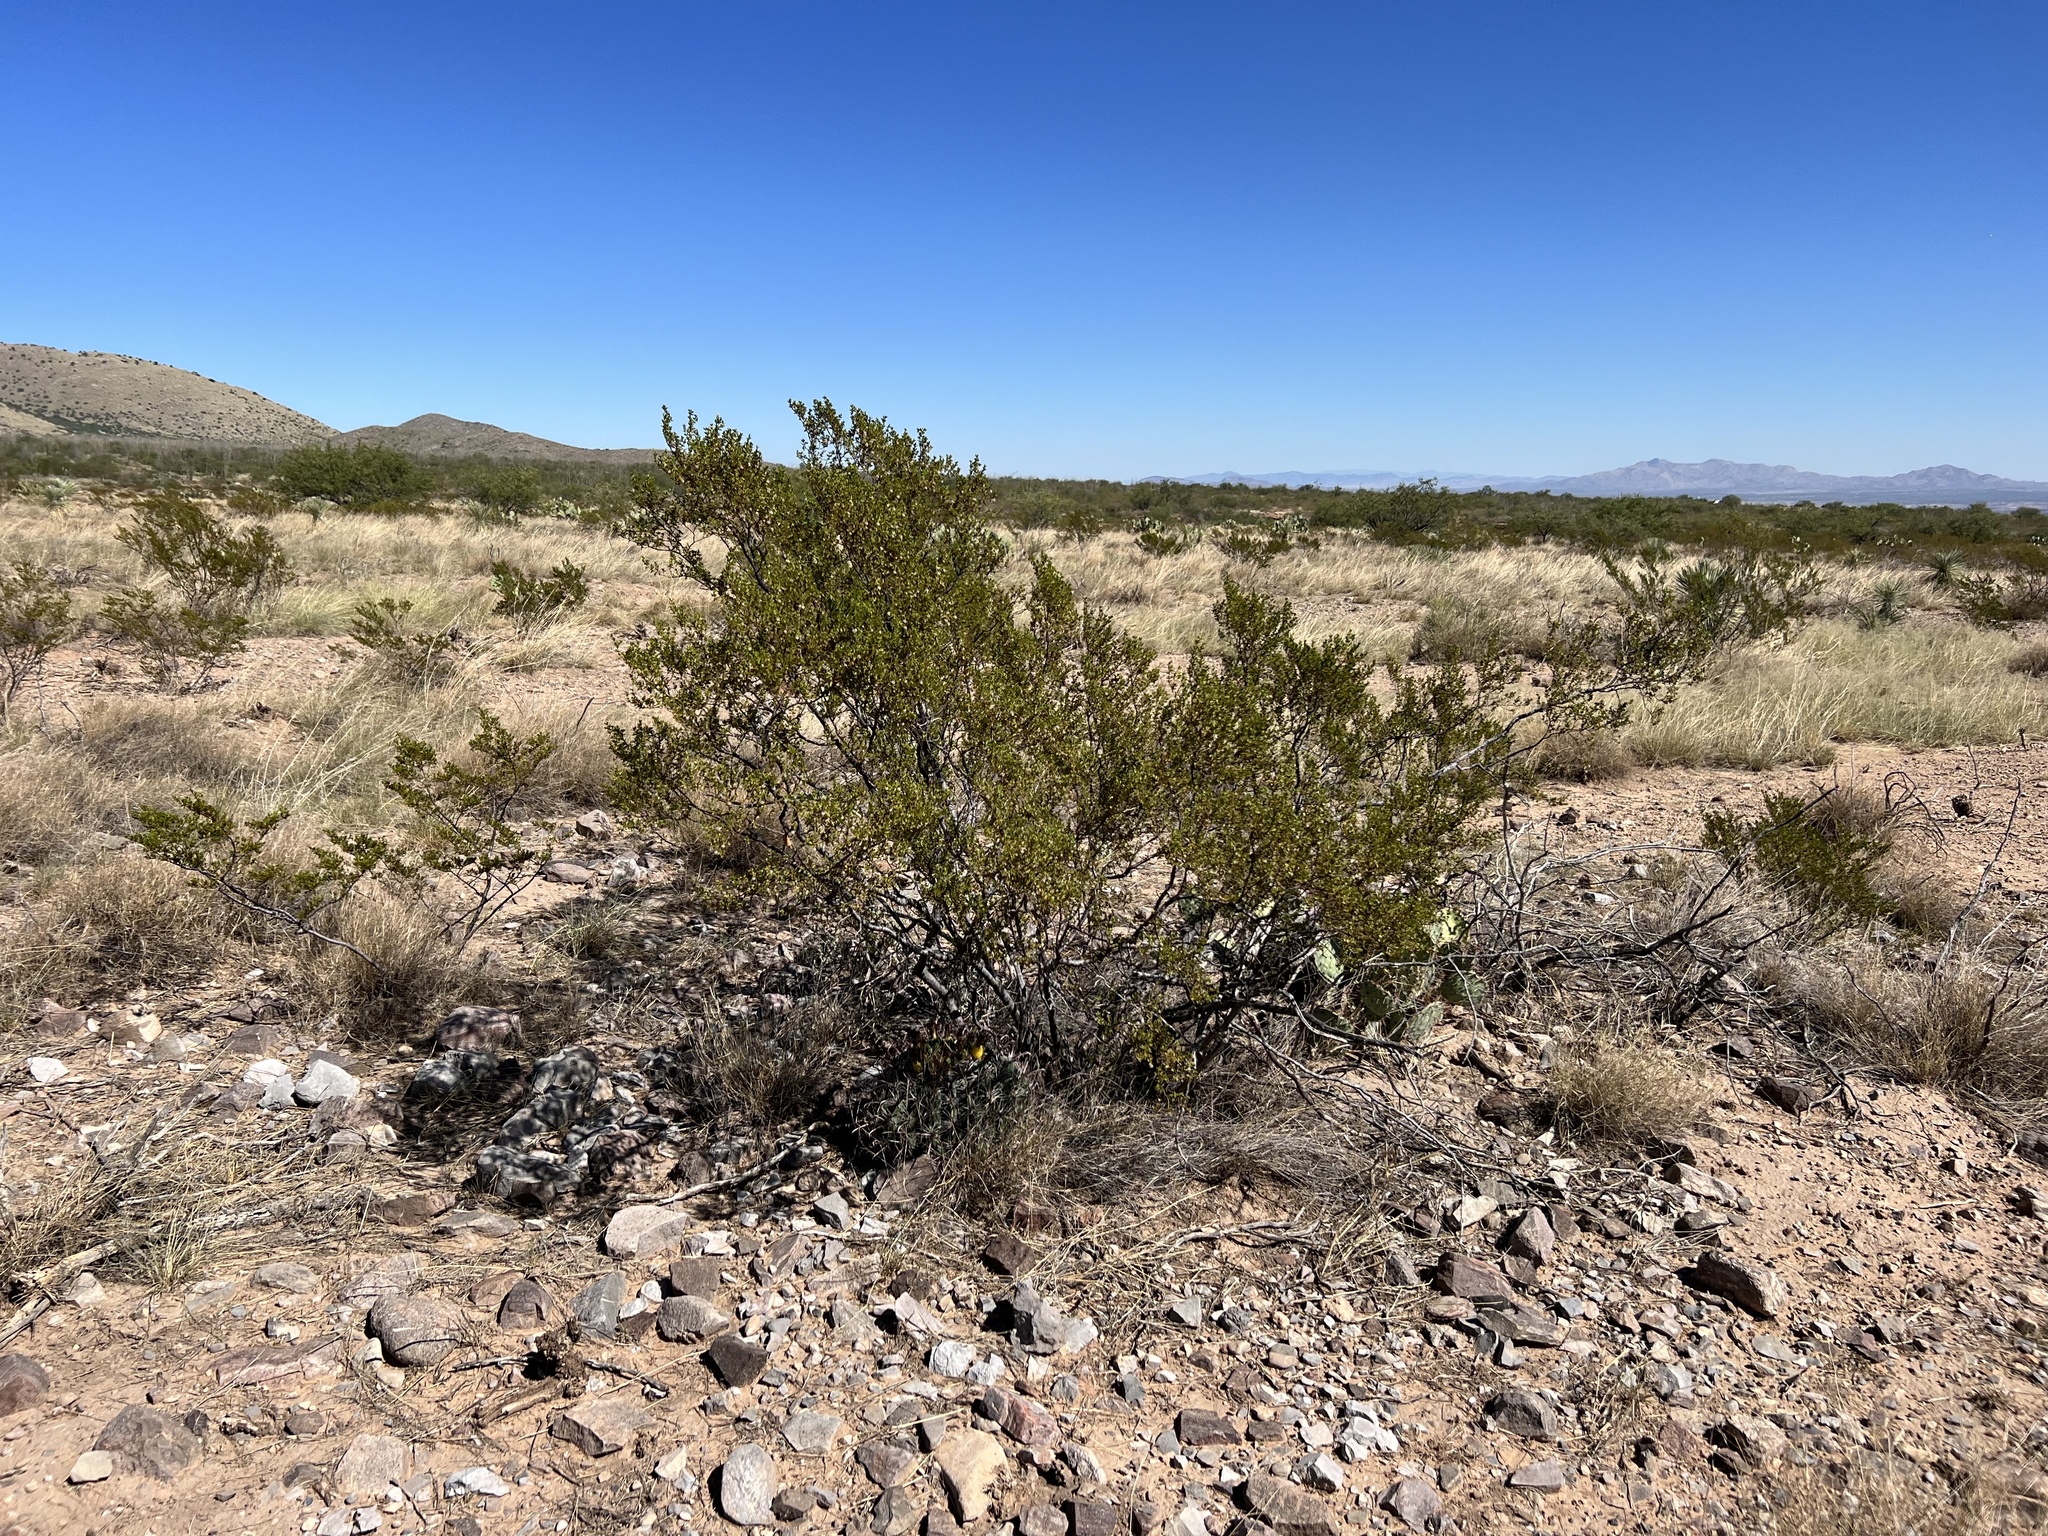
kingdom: Plantae
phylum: Tracheophyta
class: Magnoliopsida
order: Zygophyllales
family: Zygophyllaceae
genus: Larrea
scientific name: Larrea tridentata
